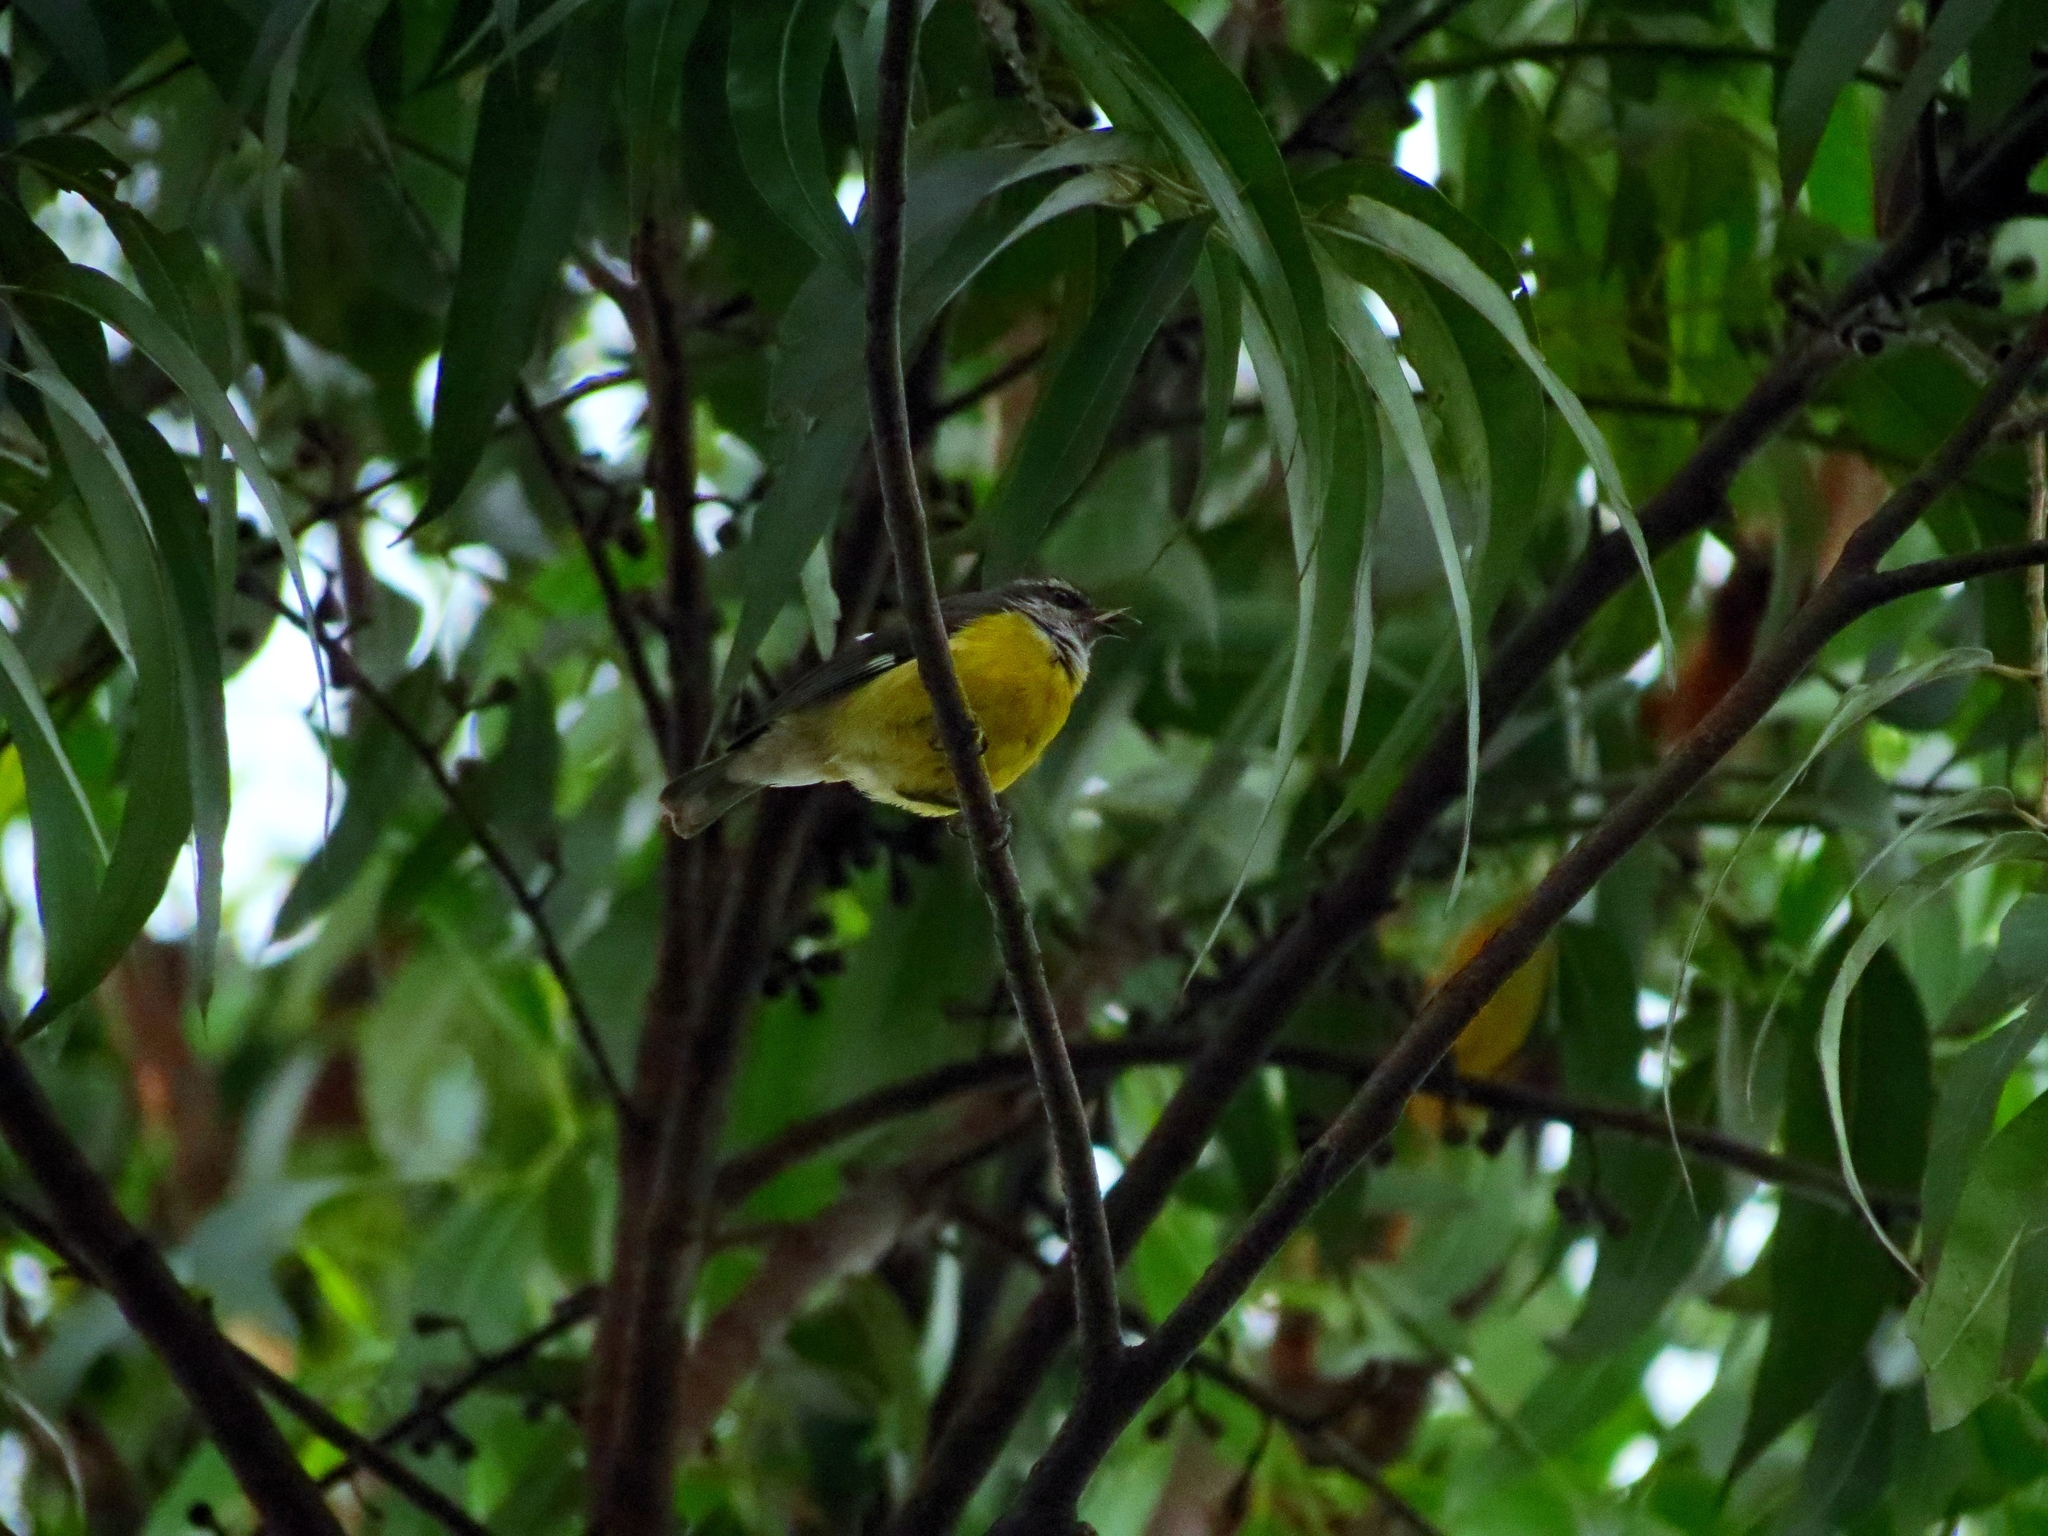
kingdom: Animalia
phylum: Chordata
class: Aves
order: Passeriformes
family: Thraupidae
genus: Coereba
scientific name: Coereba flaveola
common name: Bananaquit
